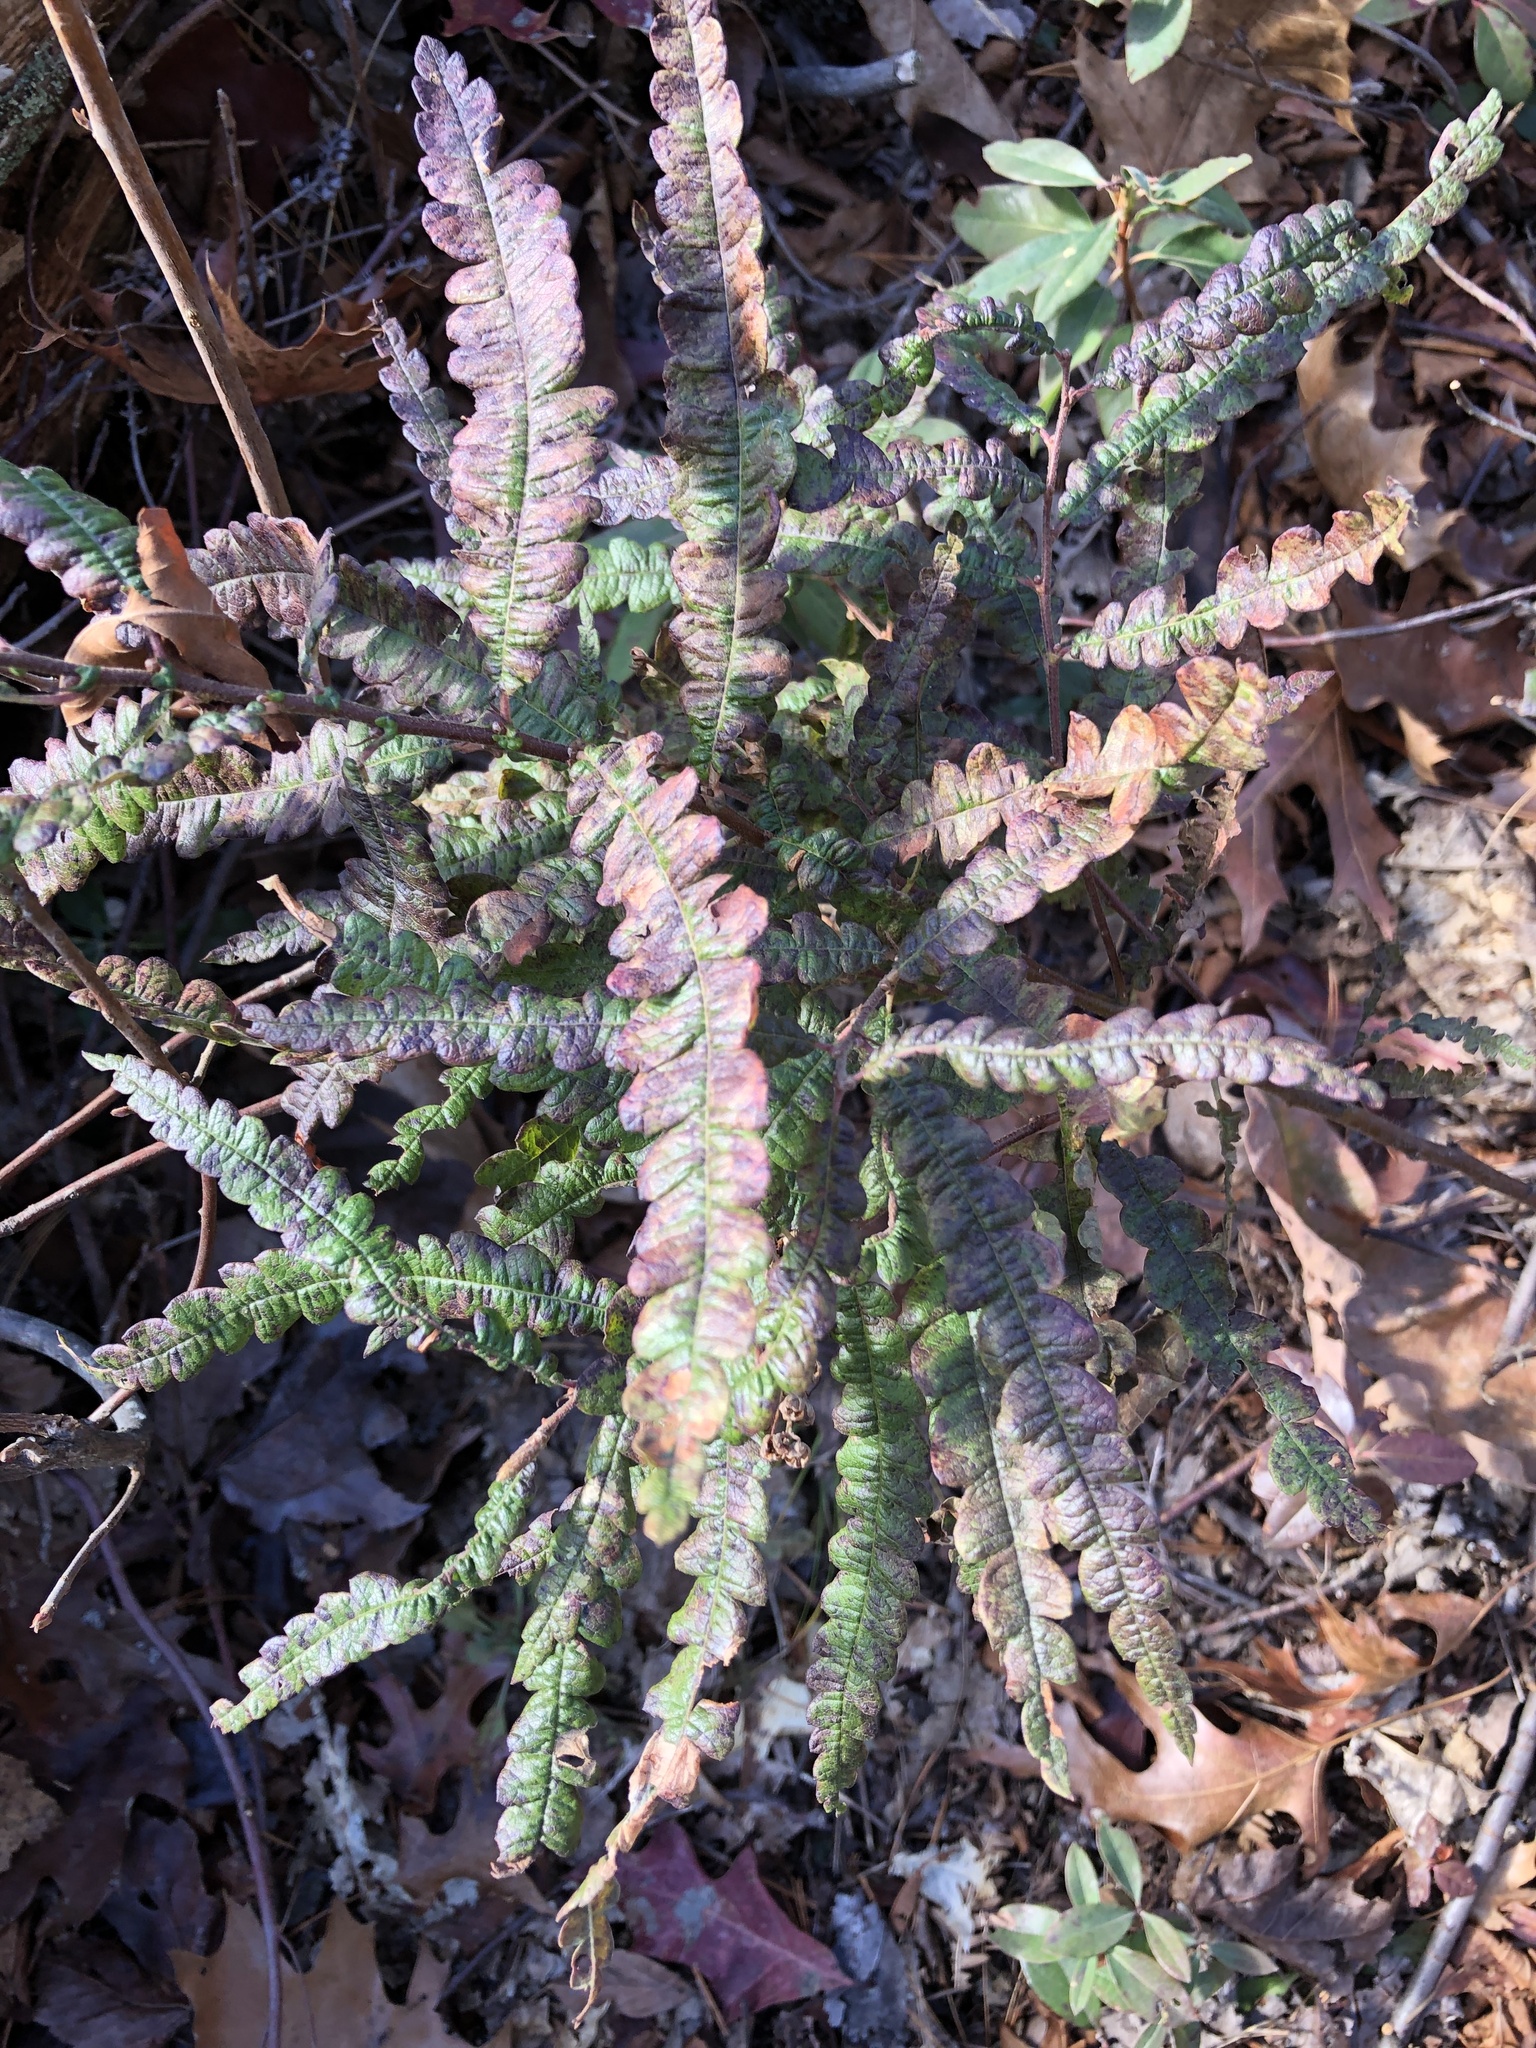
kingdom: Plantae
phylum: Tracheophyta
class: Magnoliopsida
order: Fagales
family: Myricaceae
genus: Comptonia
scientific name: Comptonia peregrina
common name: Sweet-fern
